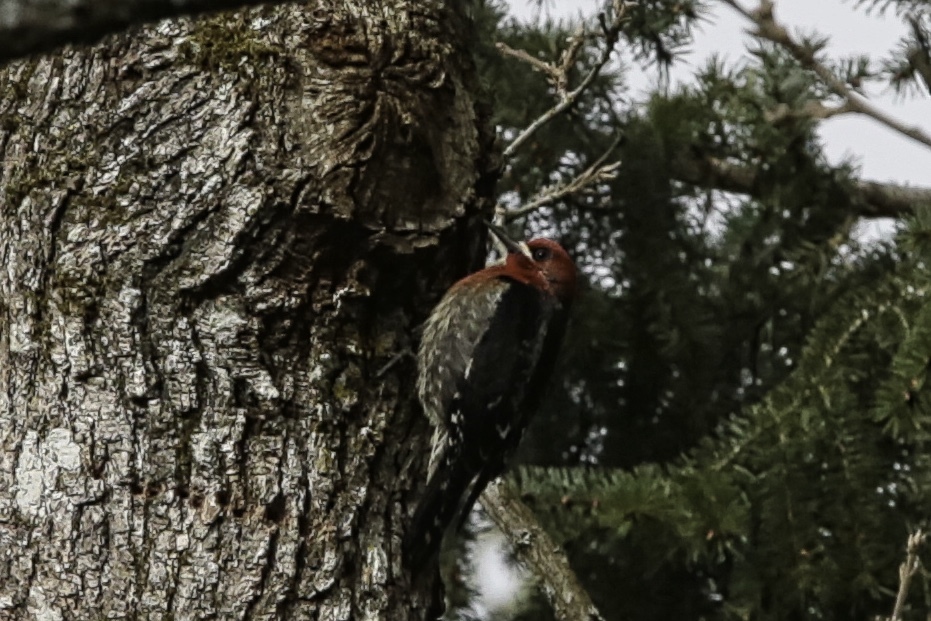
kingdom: Animalia
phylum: Chordata
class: Aves
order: Piciformes
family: Picidae
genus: Sphyrapicus
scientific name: Sphyrapicus ruber
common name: Red-breasted sapsucker
